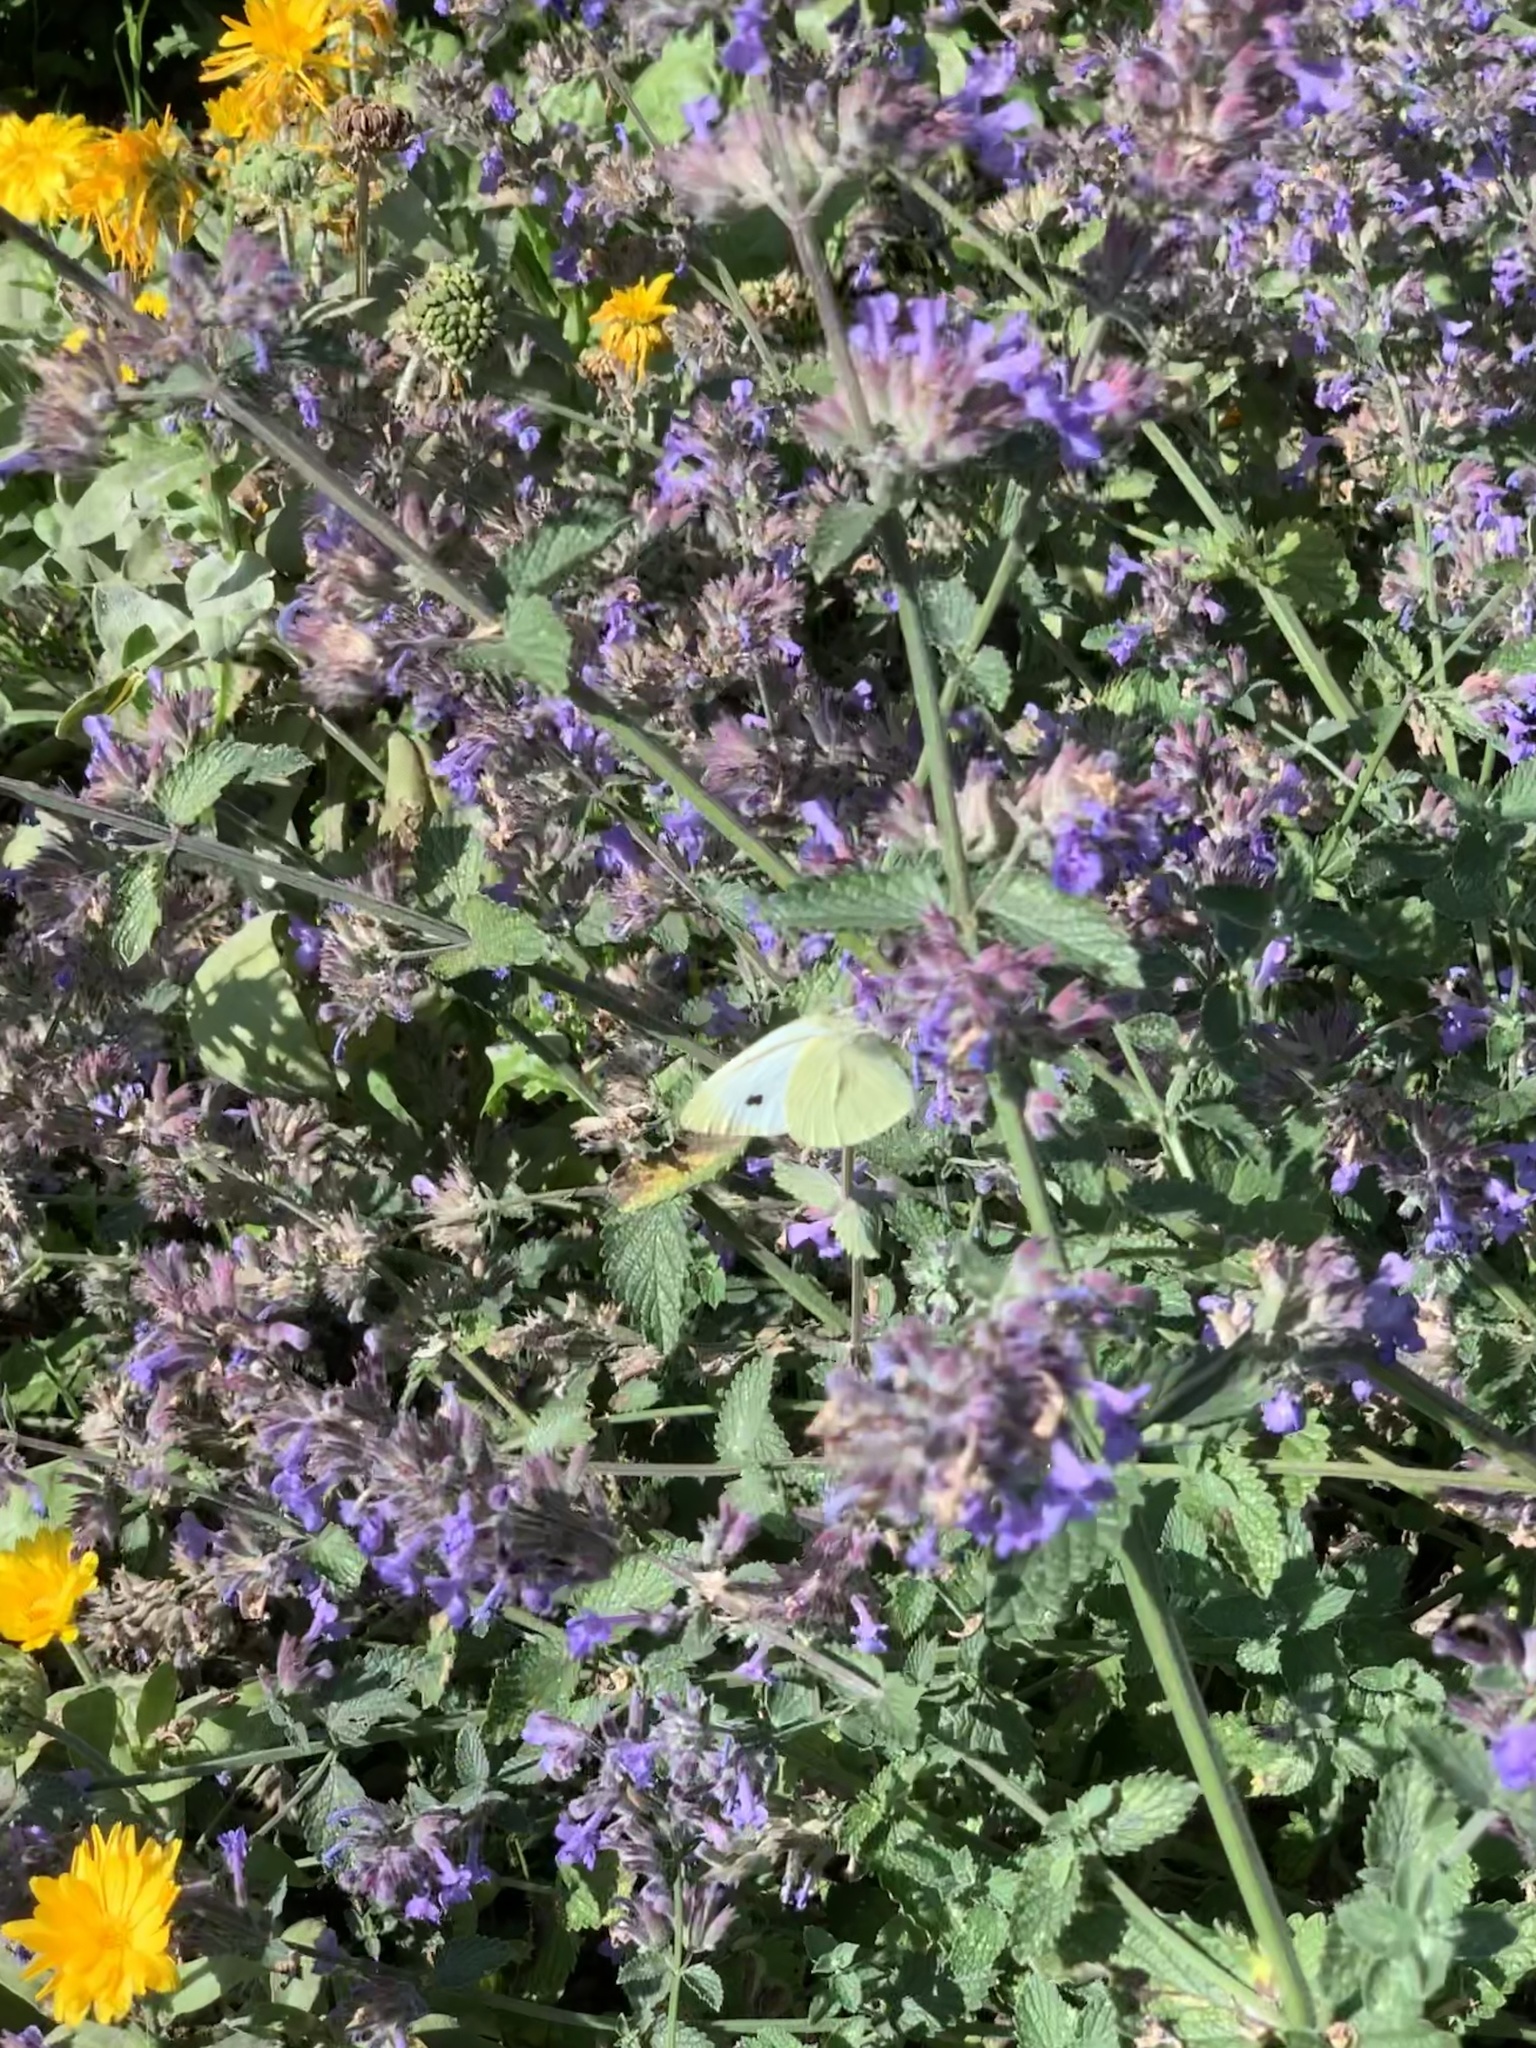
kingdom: Animalia
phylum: Arthropoda
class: Insecta
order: Lepidoptera
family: Pieridae
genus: Pieris
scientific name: Pieris rapae
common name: Small white
